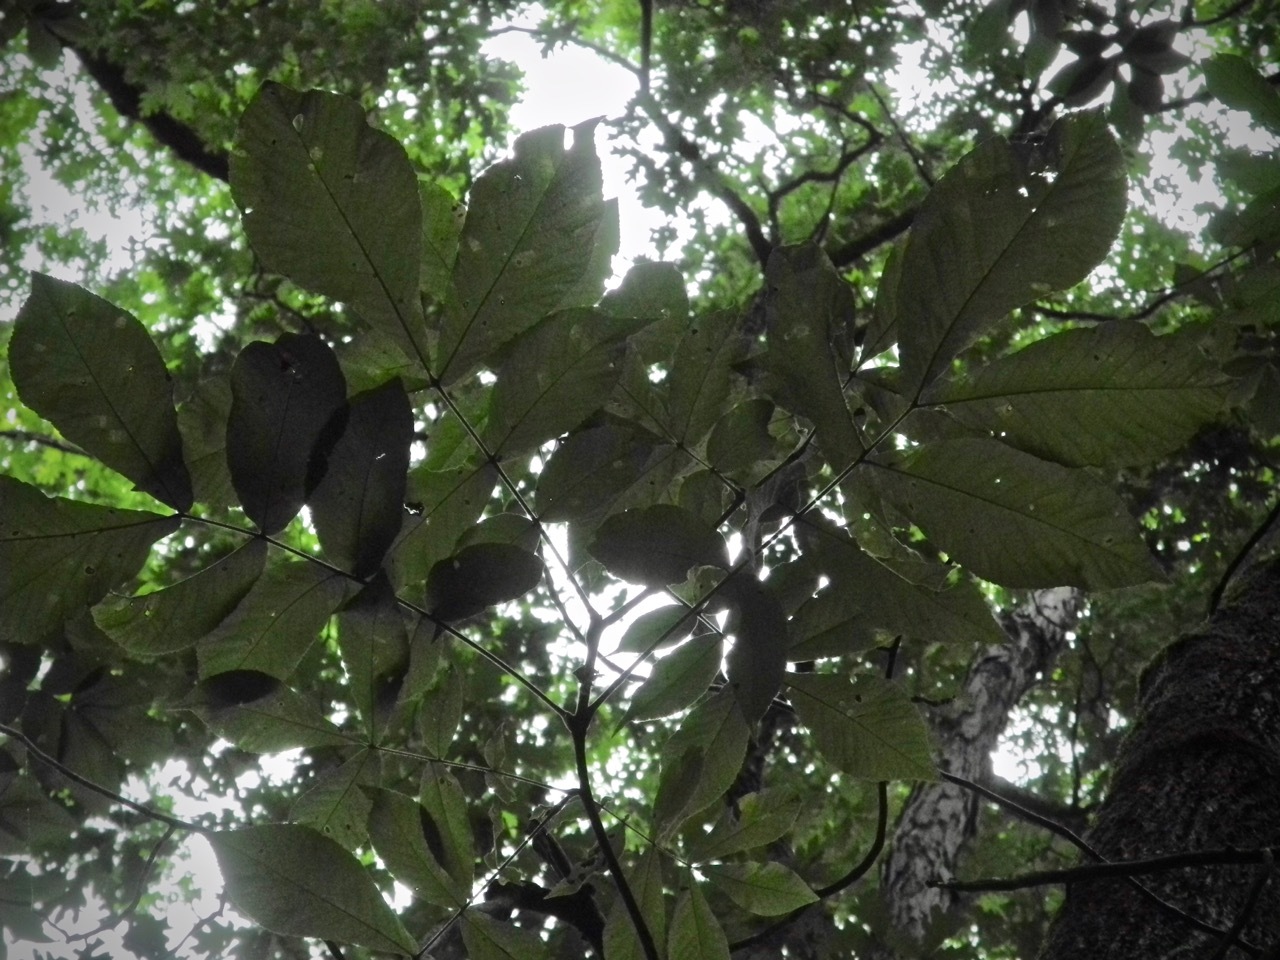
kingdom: Plantae
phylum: Tracheophyta
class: Magnoliopsida
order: Fagales
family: Juglandaceae
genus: Carya
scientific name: Carya alba
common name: Mockernut hickory
